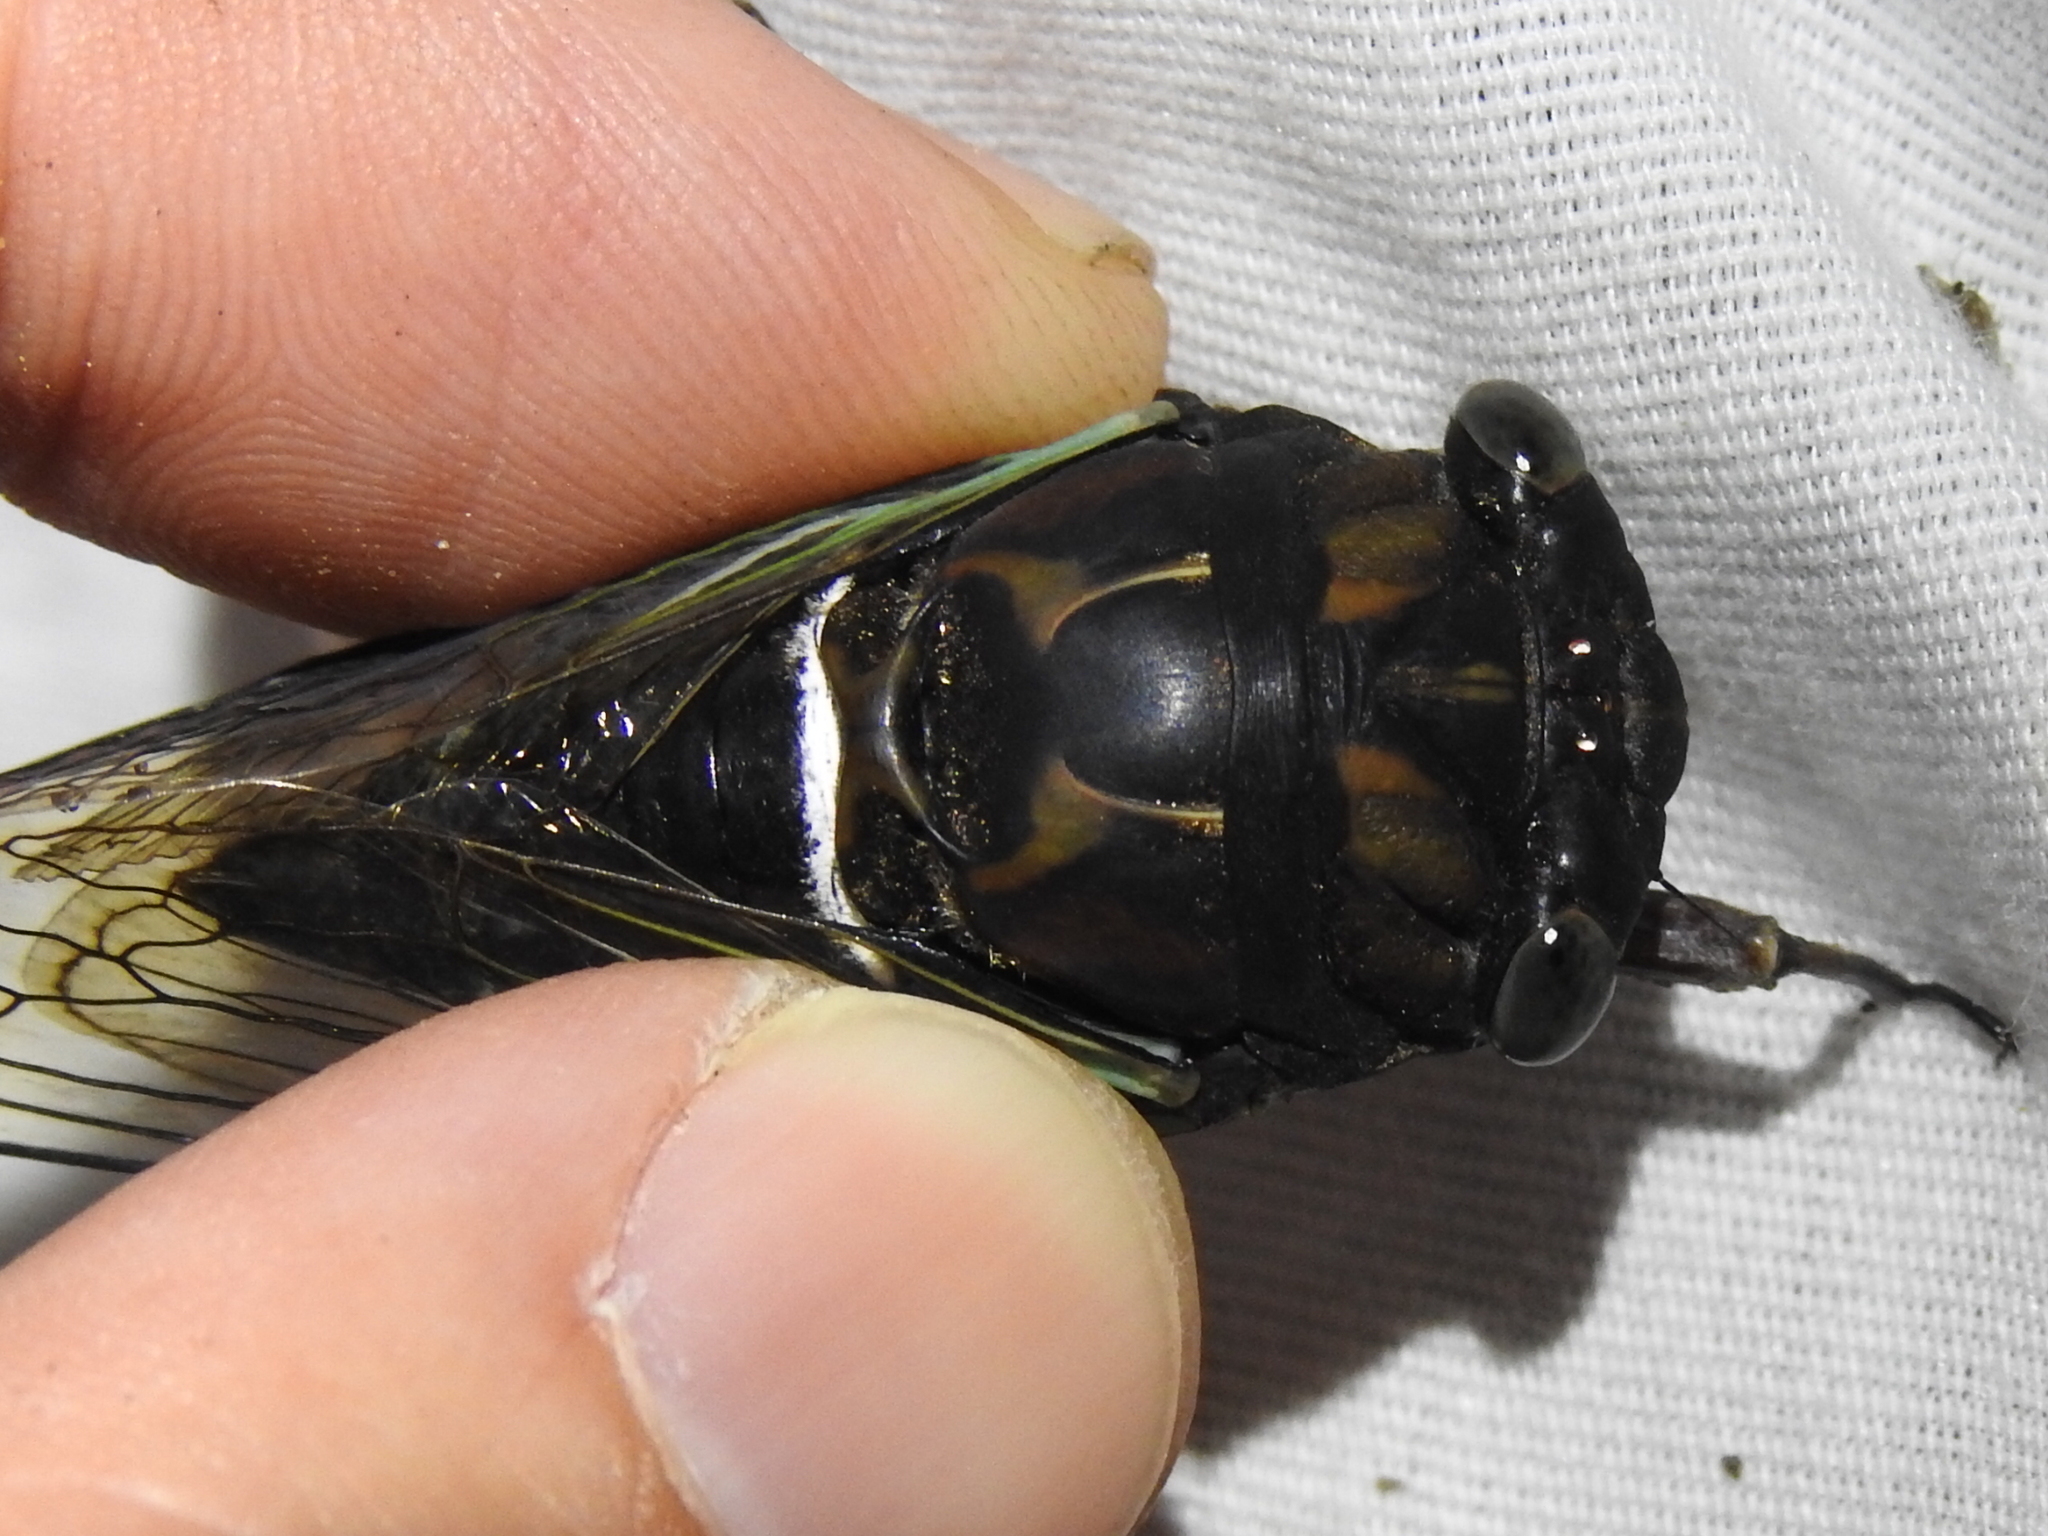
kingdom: Animalia
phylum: Arthropoda
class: Insecta
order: Hemiptera
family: Cicadidae
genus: Neotibicen
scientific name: Neotibicen lyricen
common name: Lyric cicada
